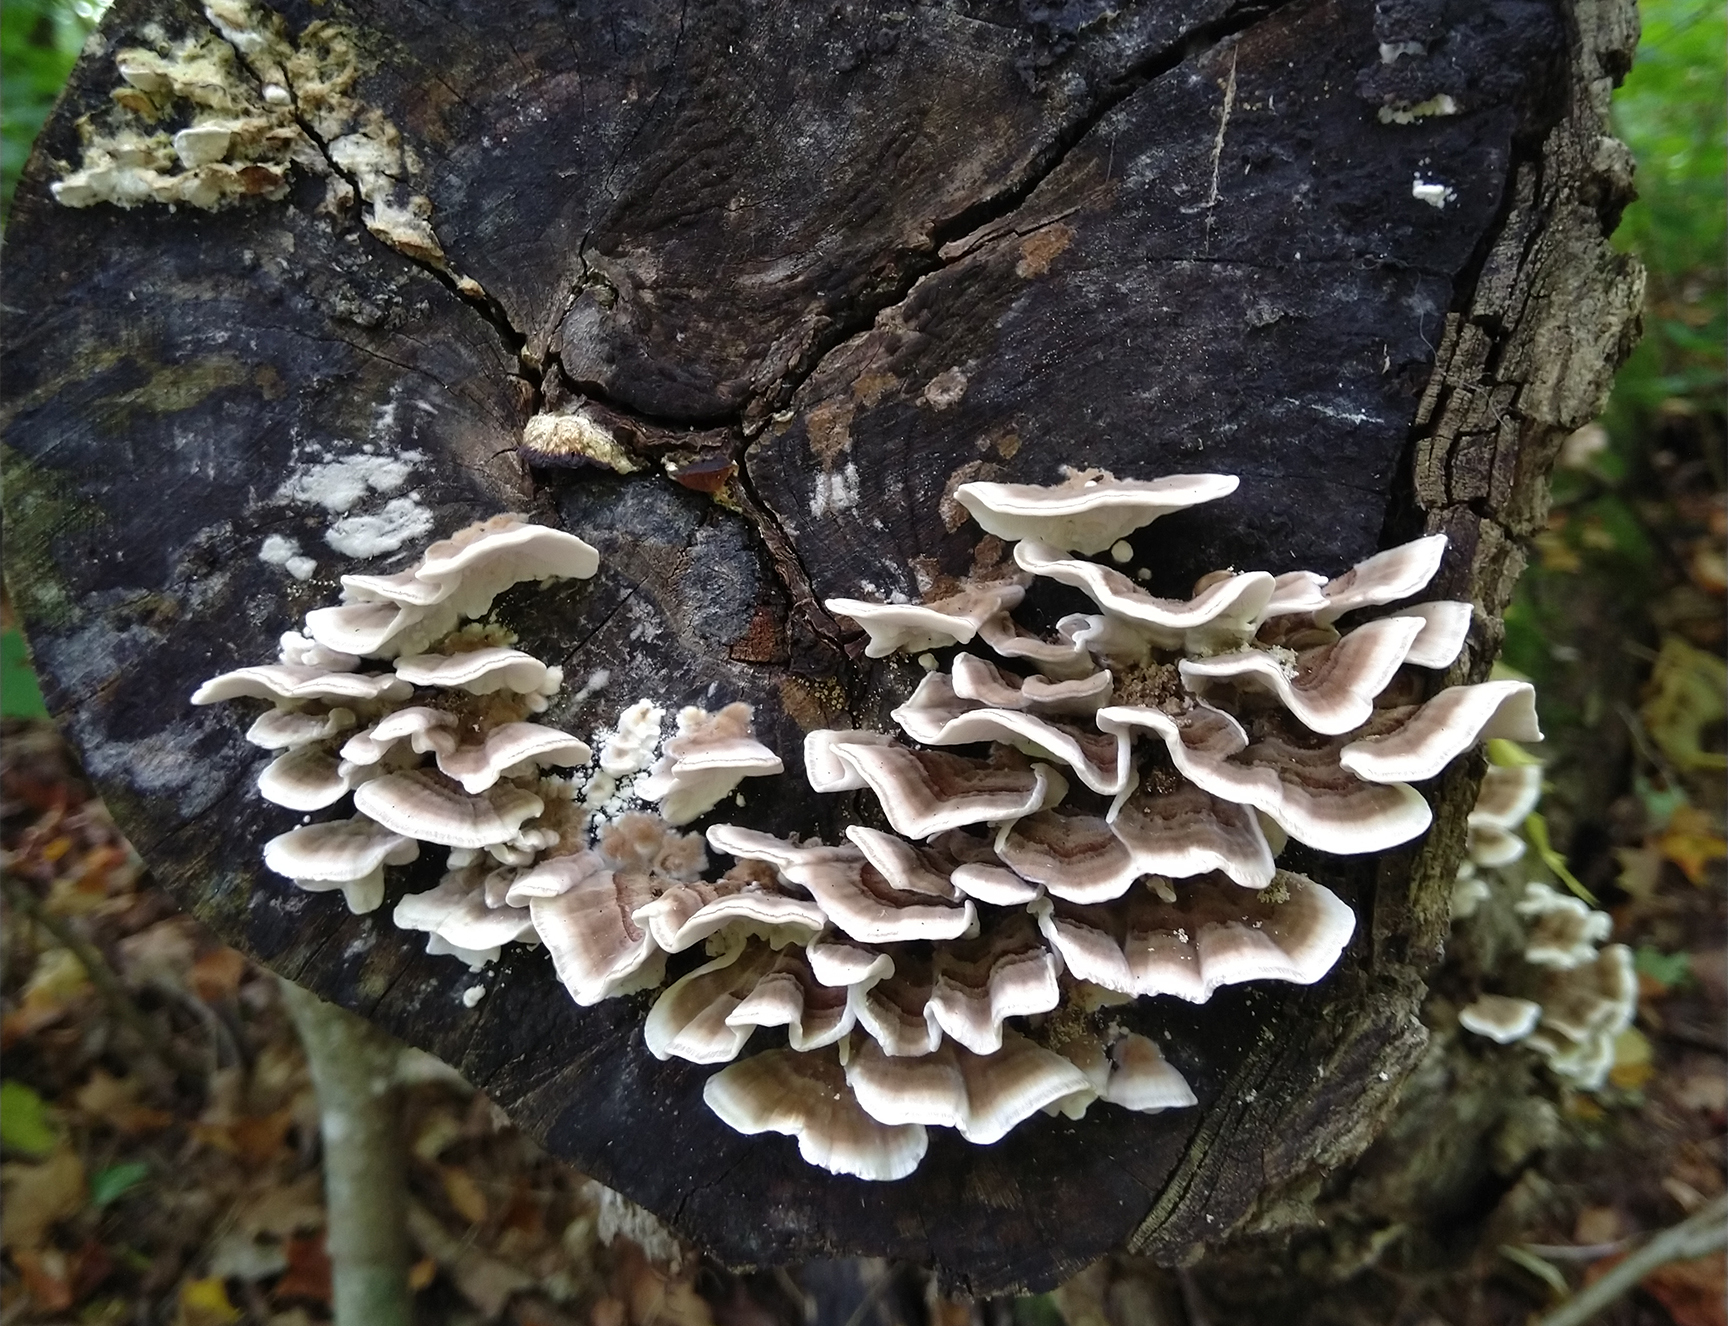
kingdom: Fungi
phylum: Basidiomycota
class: Agaricomycetes
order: Polyporales
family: Polyporaceae
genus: Trametes
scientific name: Trametes versicolor
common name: Turkeytail
